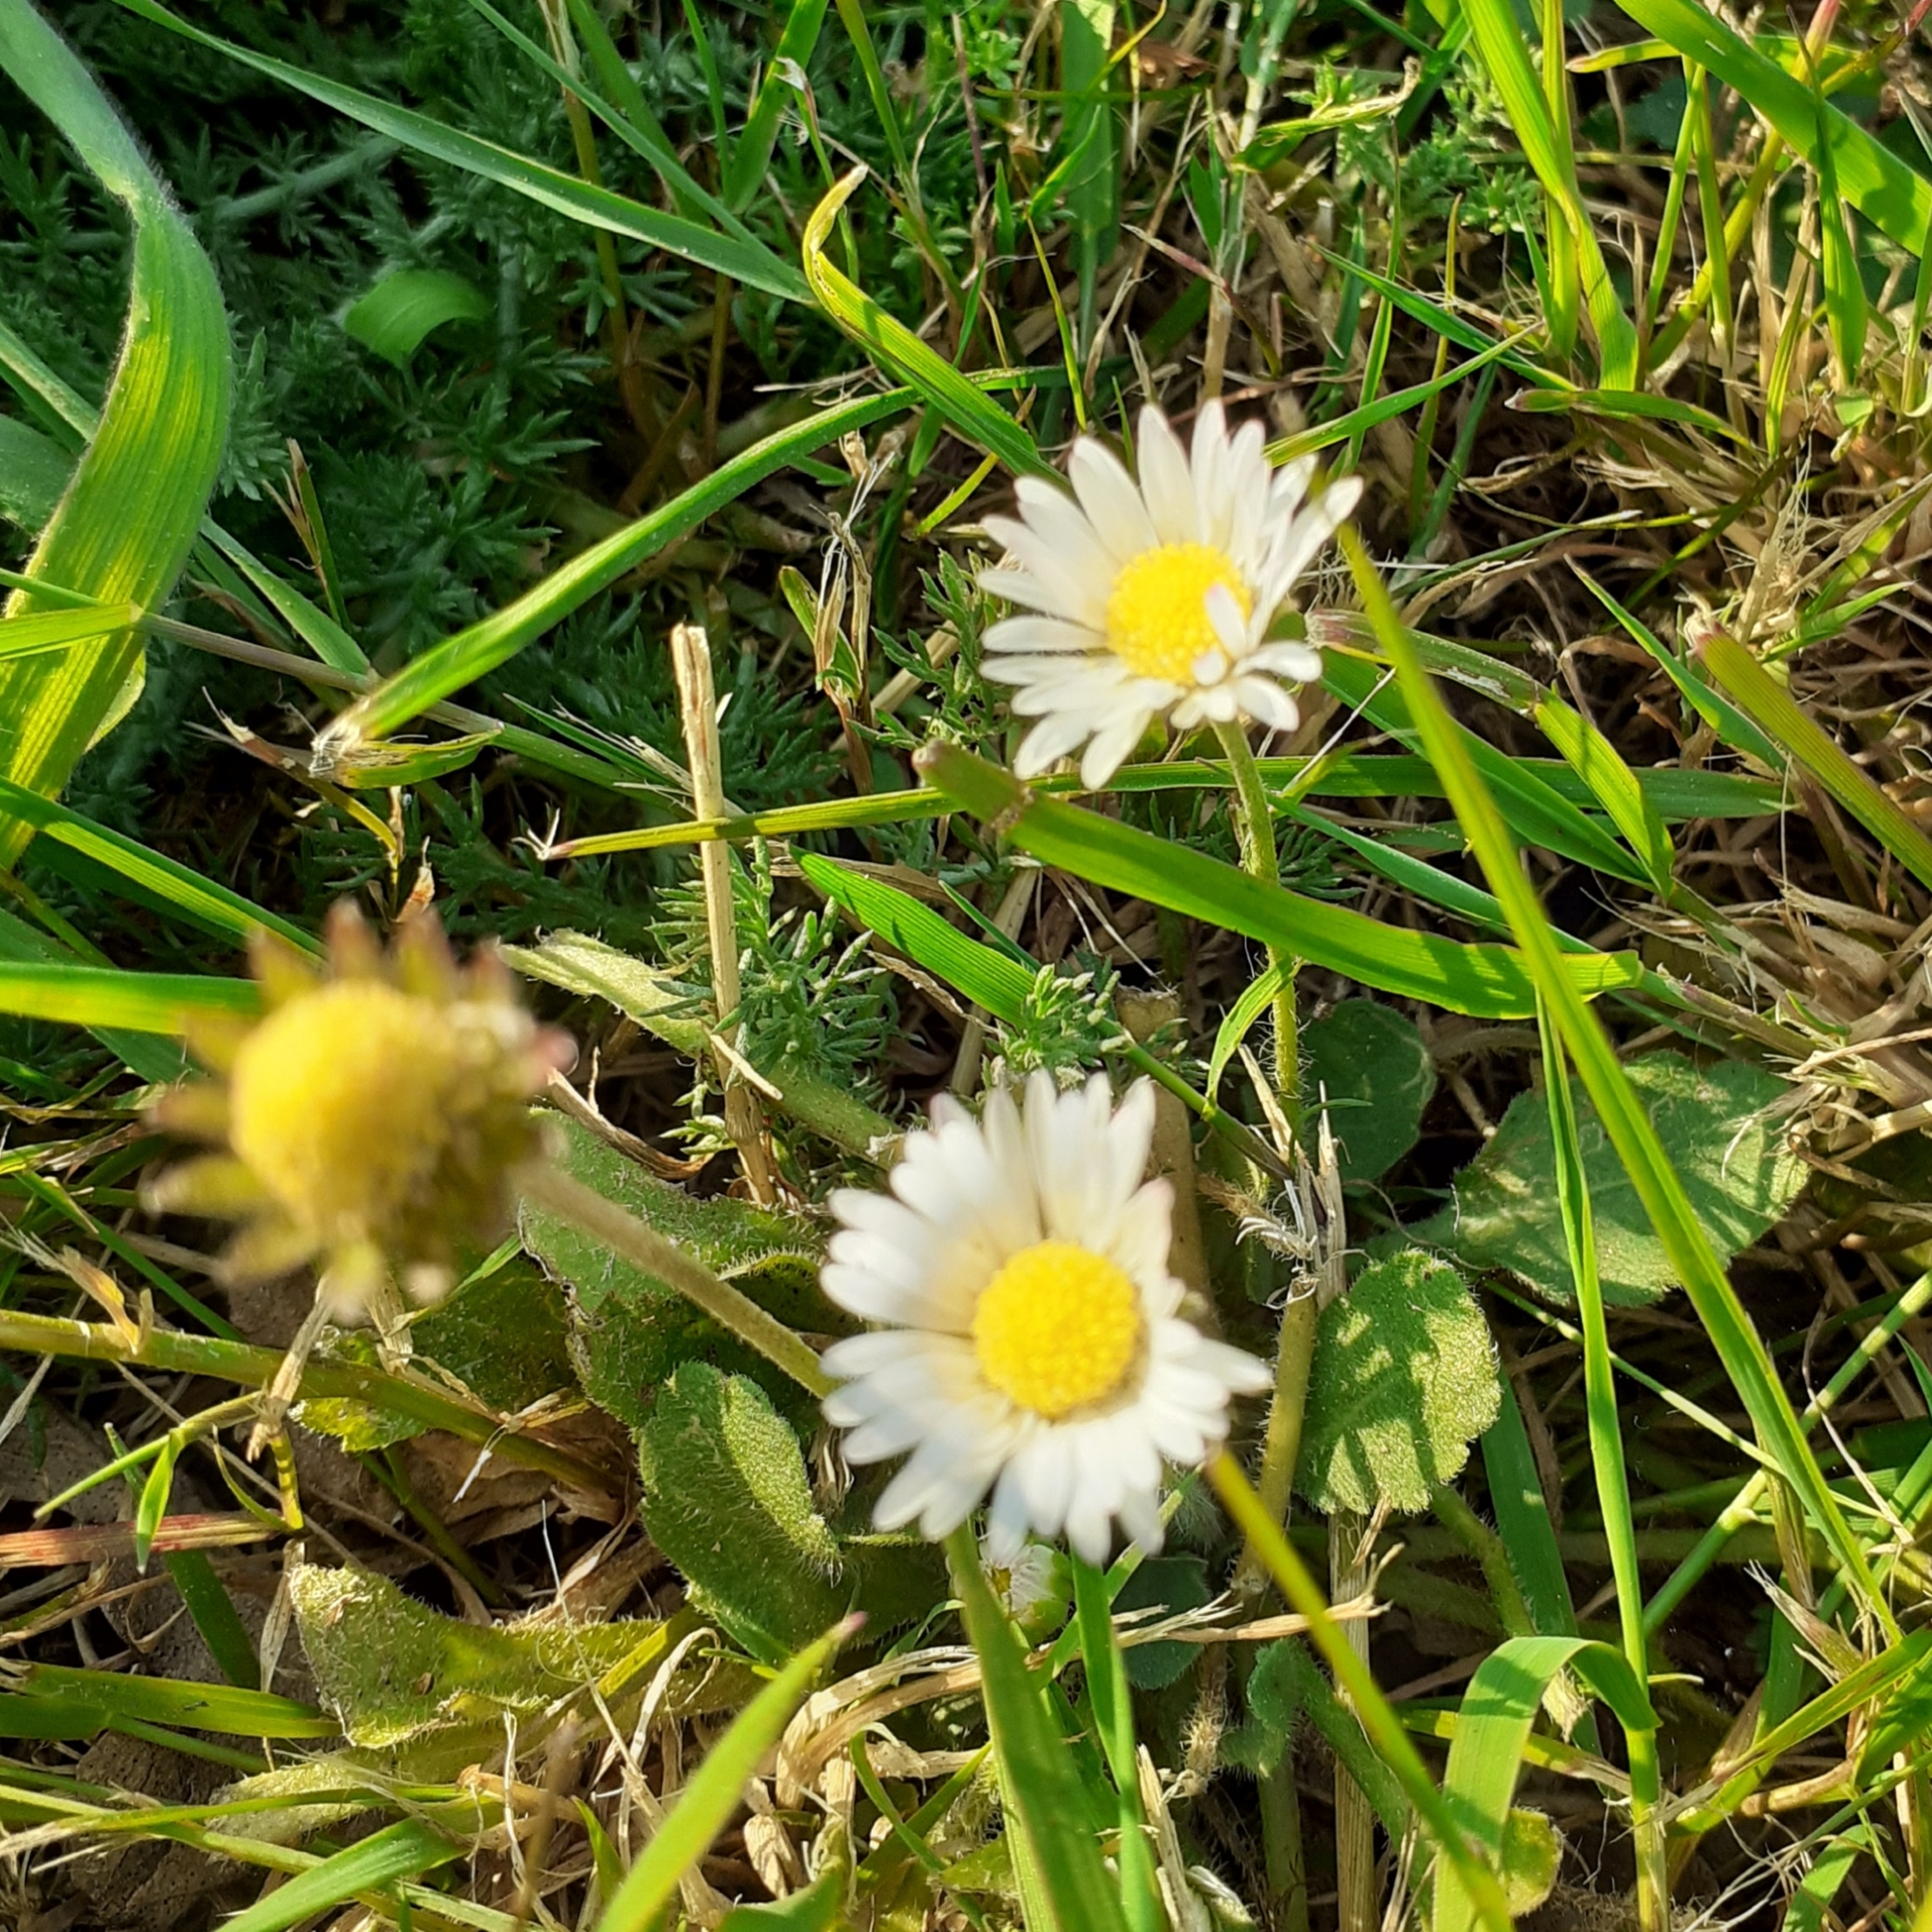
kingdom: Plantae
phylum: Tracheophyta
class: Magnoliopsida
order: Asterales
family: Asteraceae
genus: Bellis
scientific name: Bellis perennis
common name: Lawndaisy
